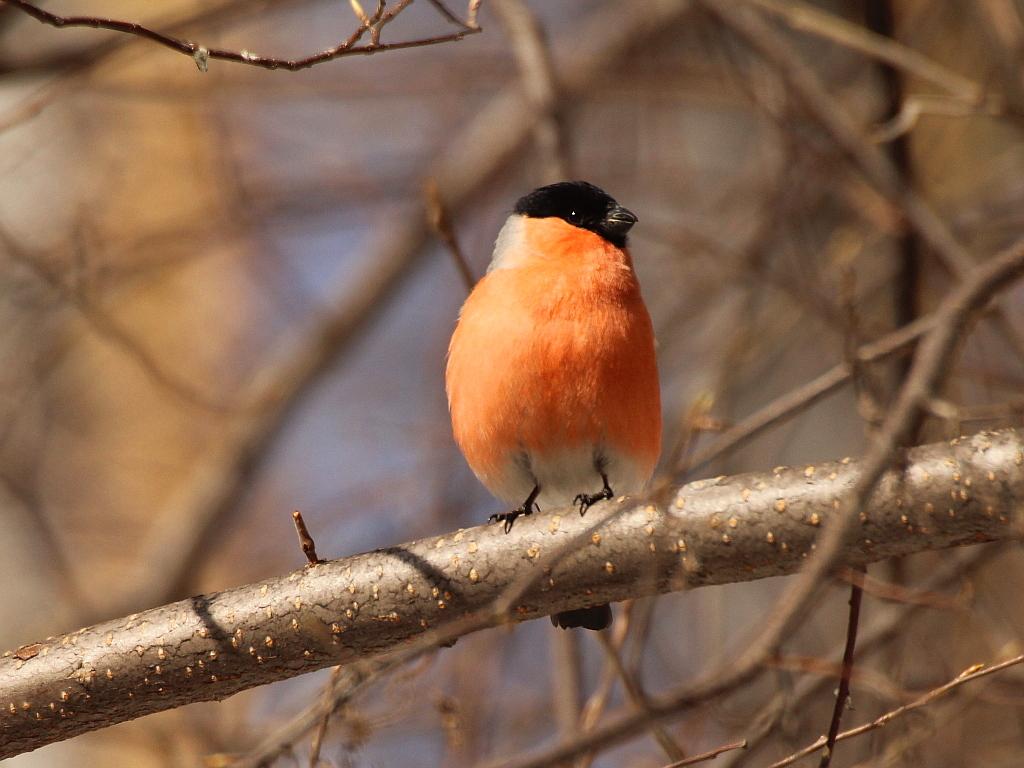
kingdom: Animalia
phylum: Chordata
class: Aves
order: Passeriformes
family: Fringillidae
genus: Pyrrhula
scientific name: Pyrrhula pyrrhula
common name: Eurasian bullfinch
